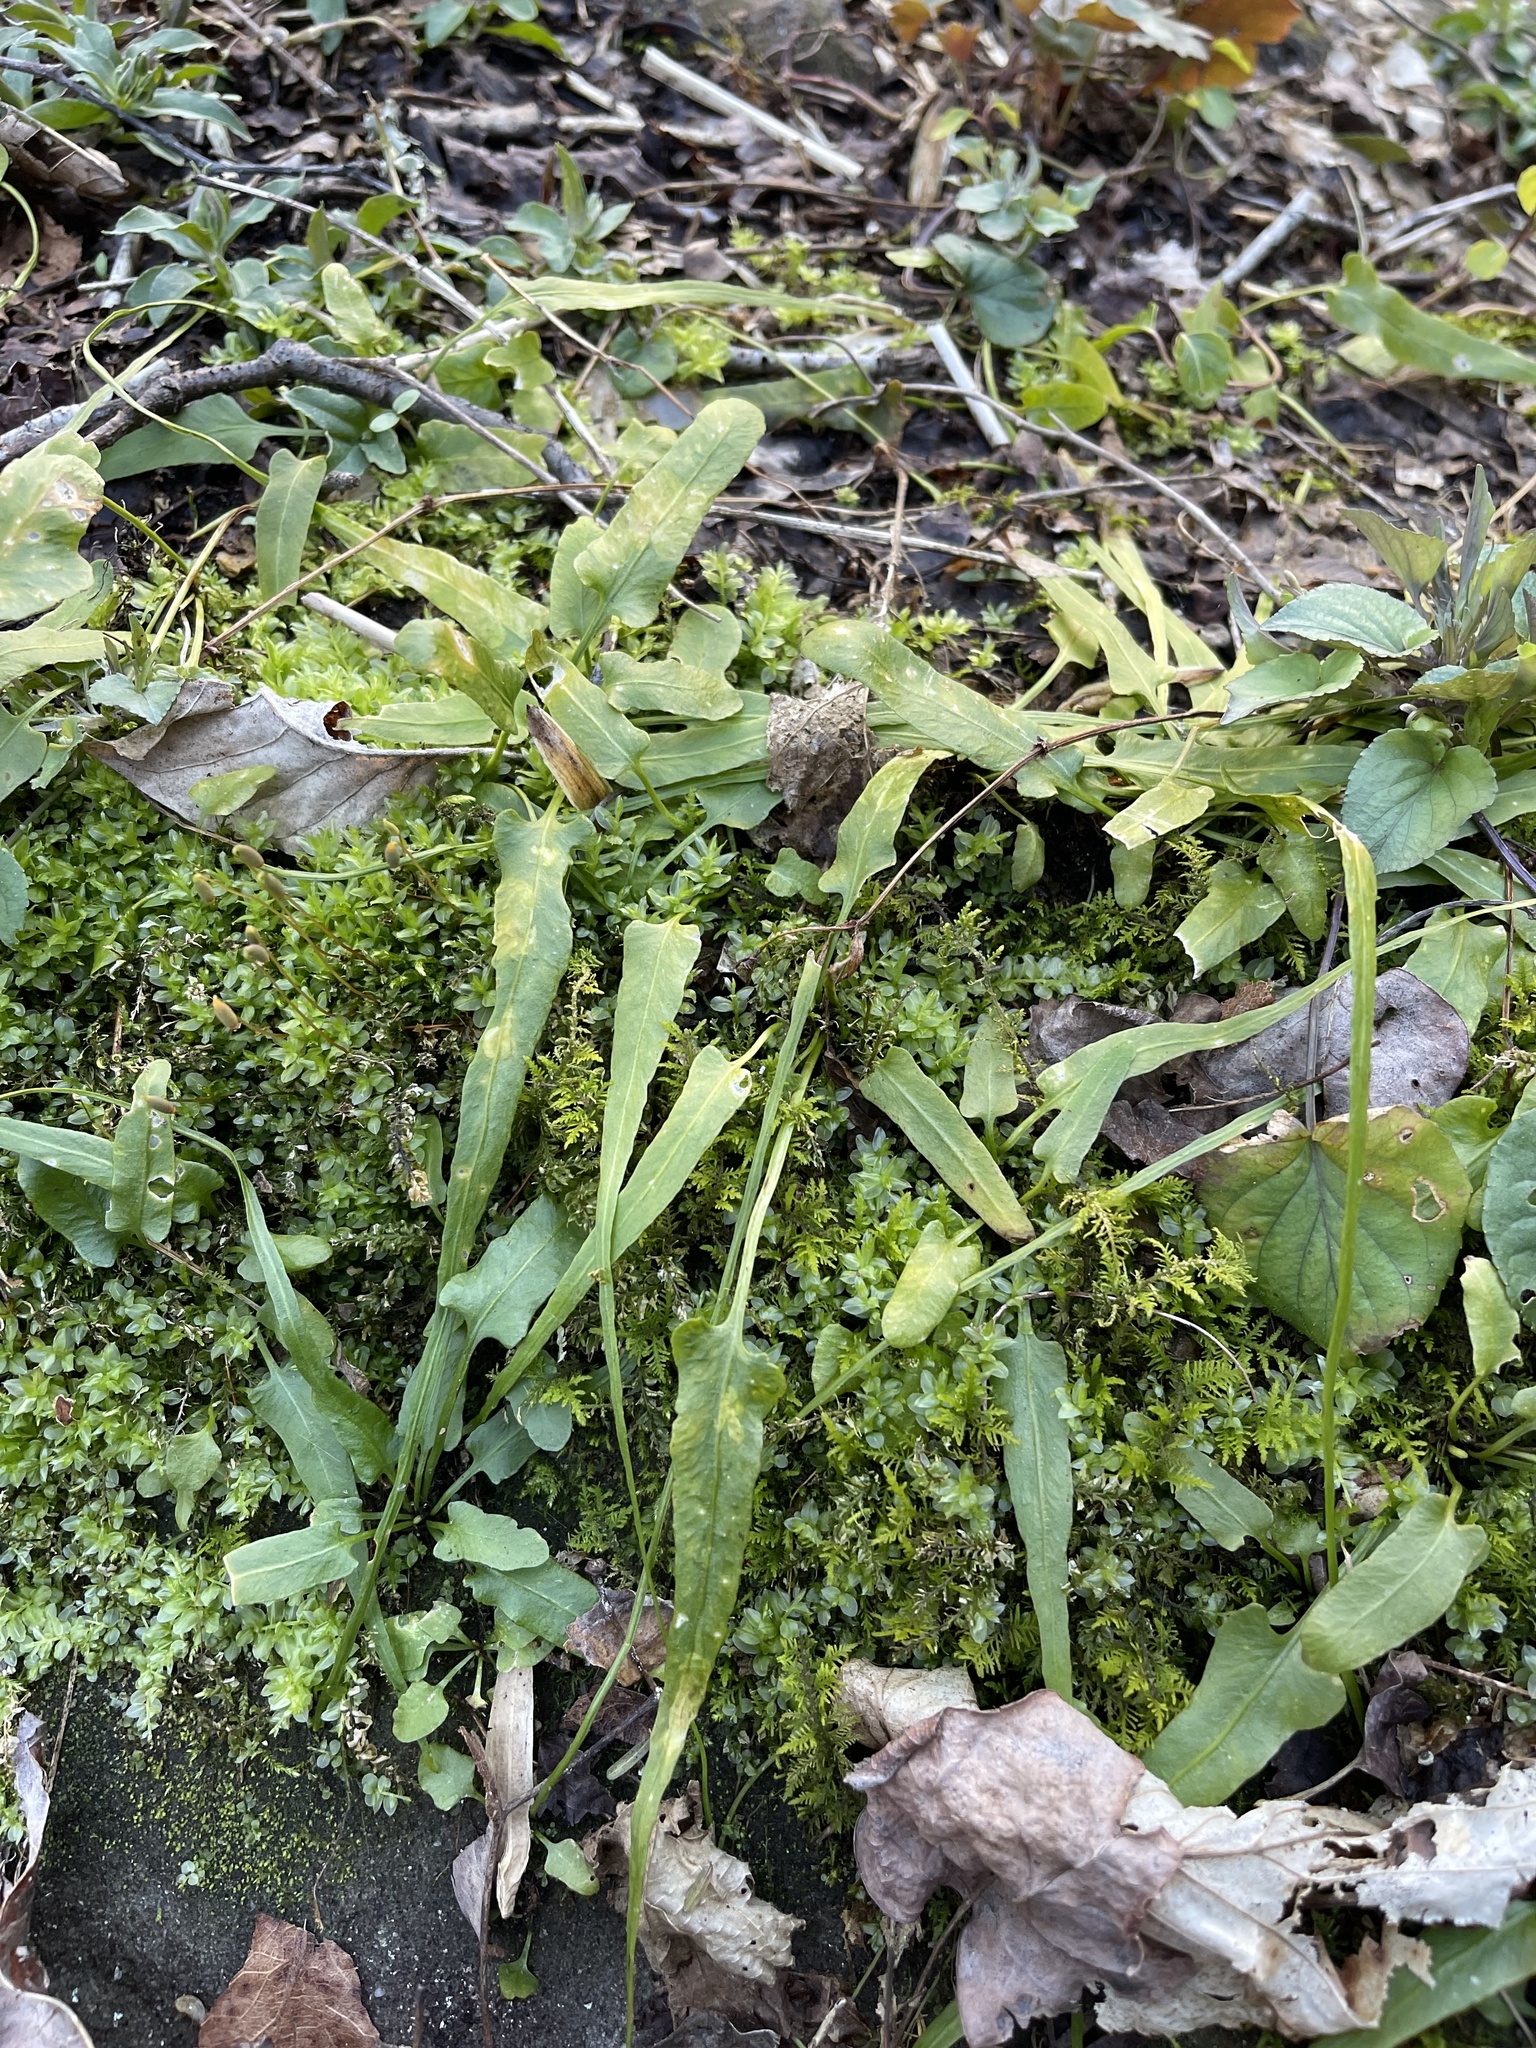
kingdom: Plantae
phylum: Tracheophyta
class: Polypodiopsida
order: Polypodiales
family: Aspleniaceae
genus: Asplenium
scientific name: Asplenium rhizophyllum
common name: Walking fern
